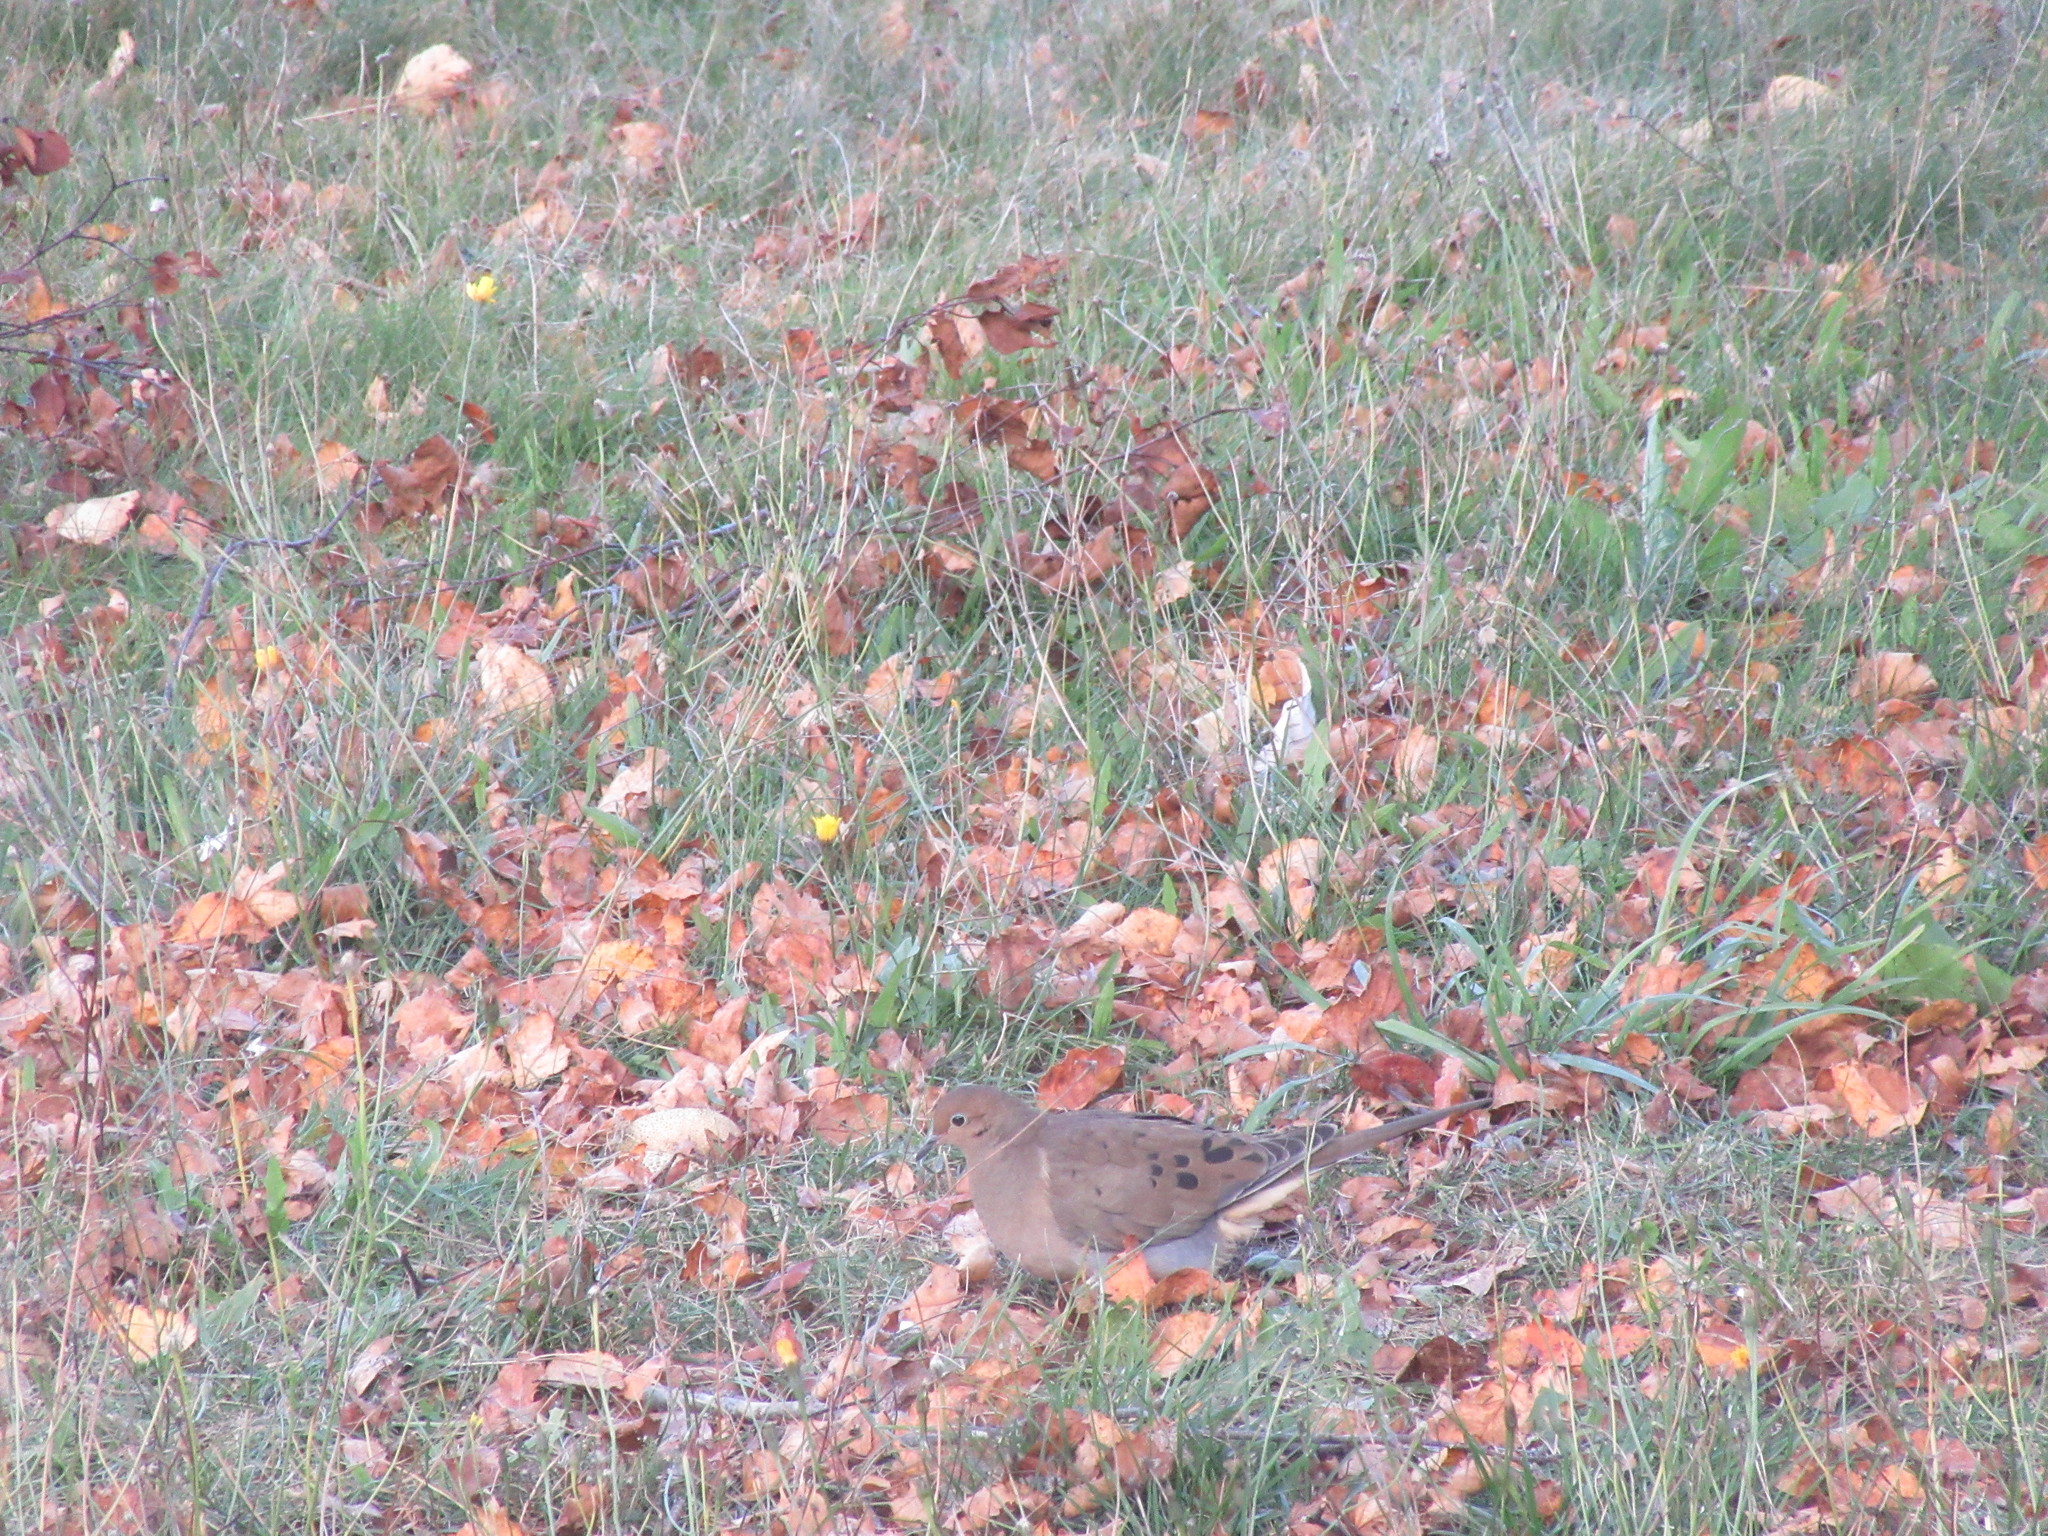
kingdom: Animalia
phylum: Chordata
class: Aves
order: Columbiformes
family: Columbidae
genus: Zenaida
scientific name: Zenaida macroura
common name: Mourning dove
